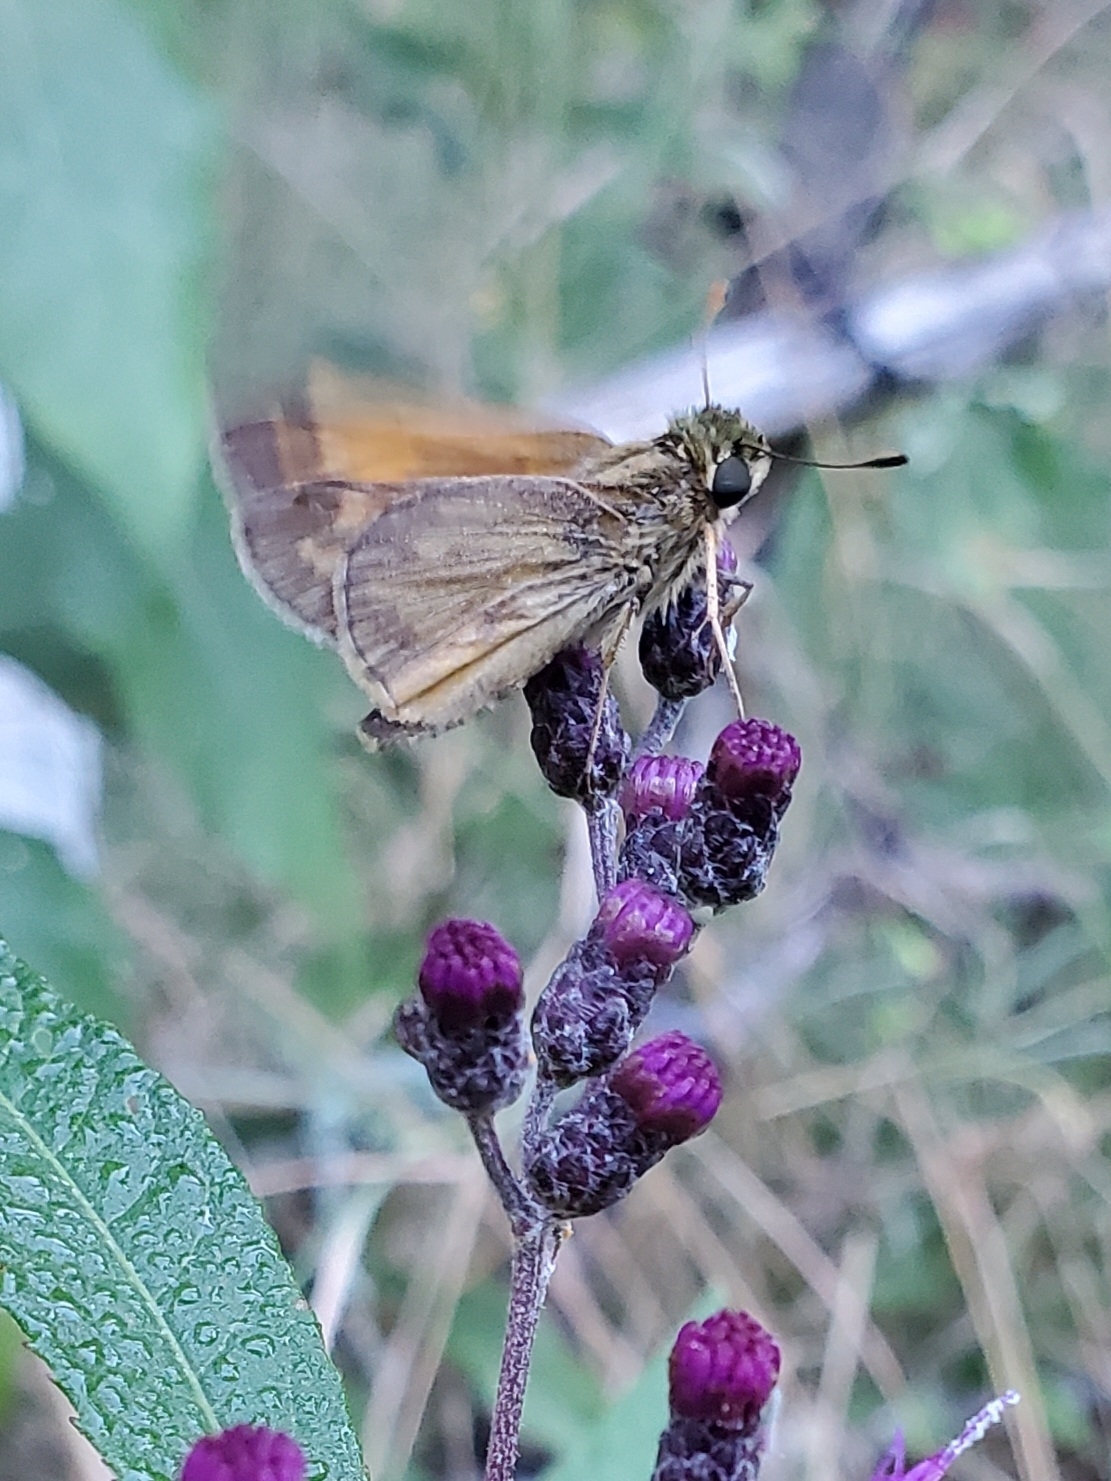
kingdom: Animalia
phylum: Arthropoda
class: Insecta
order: Lepidoptera
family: Hesperiidae
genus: Atalopedes
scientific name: Atalopedes
